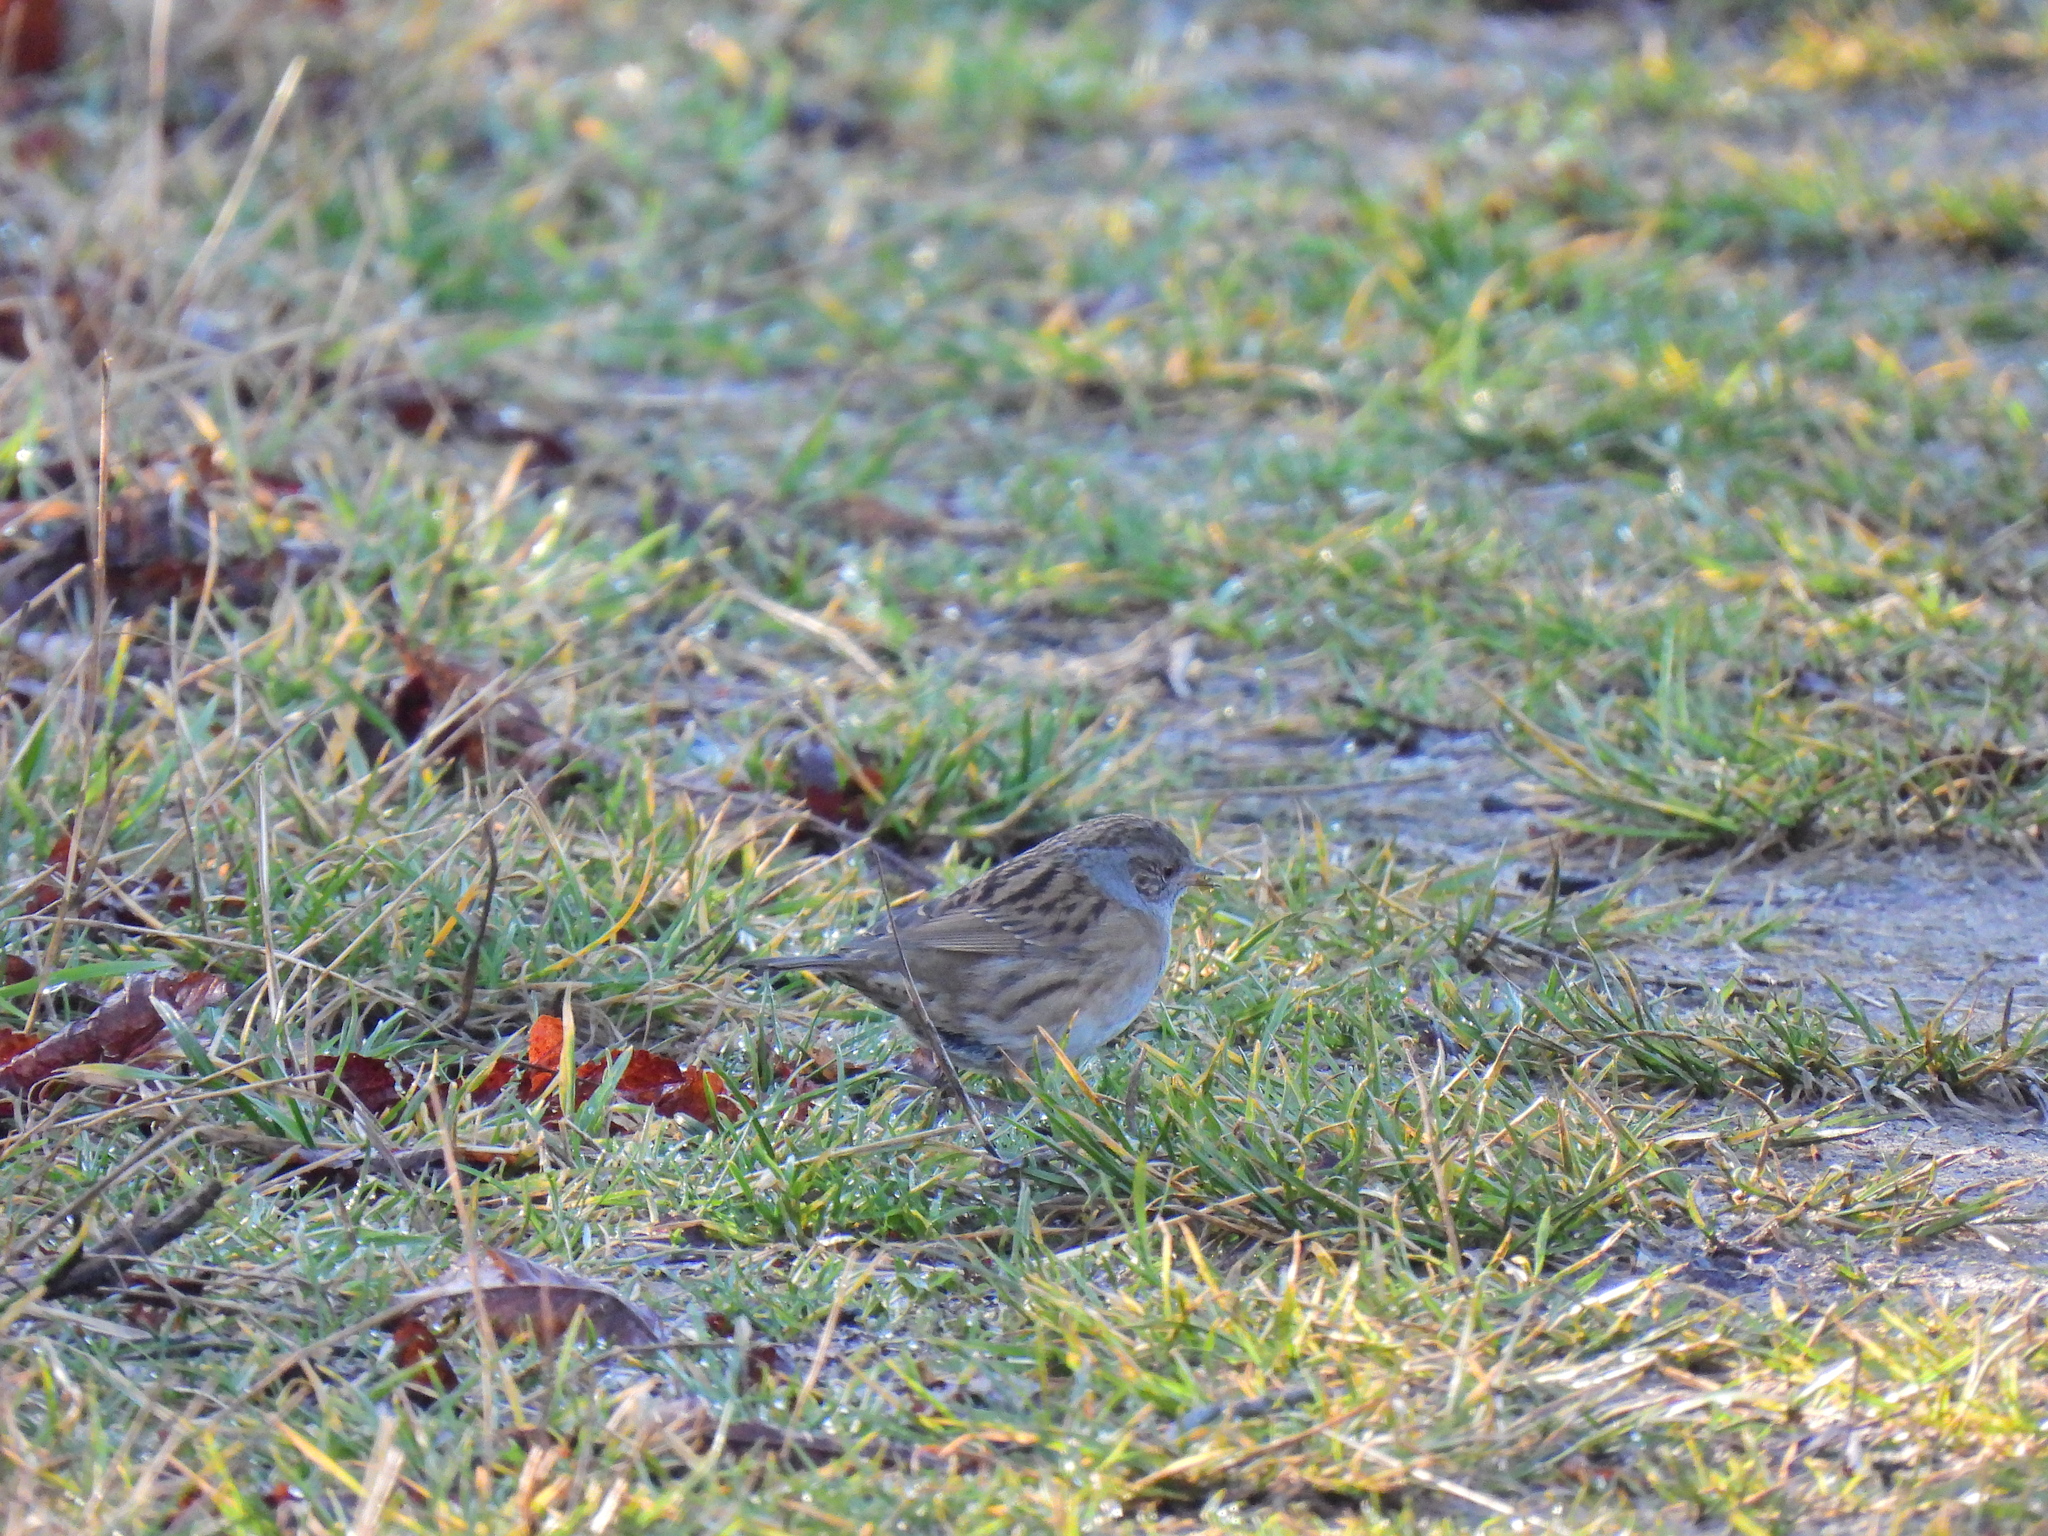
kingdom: Animalia
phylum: Chordata
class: Aves
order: Passeriformes
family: Prunellidae
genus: Prunella
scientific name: Prunella modularis
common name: Dunnock
